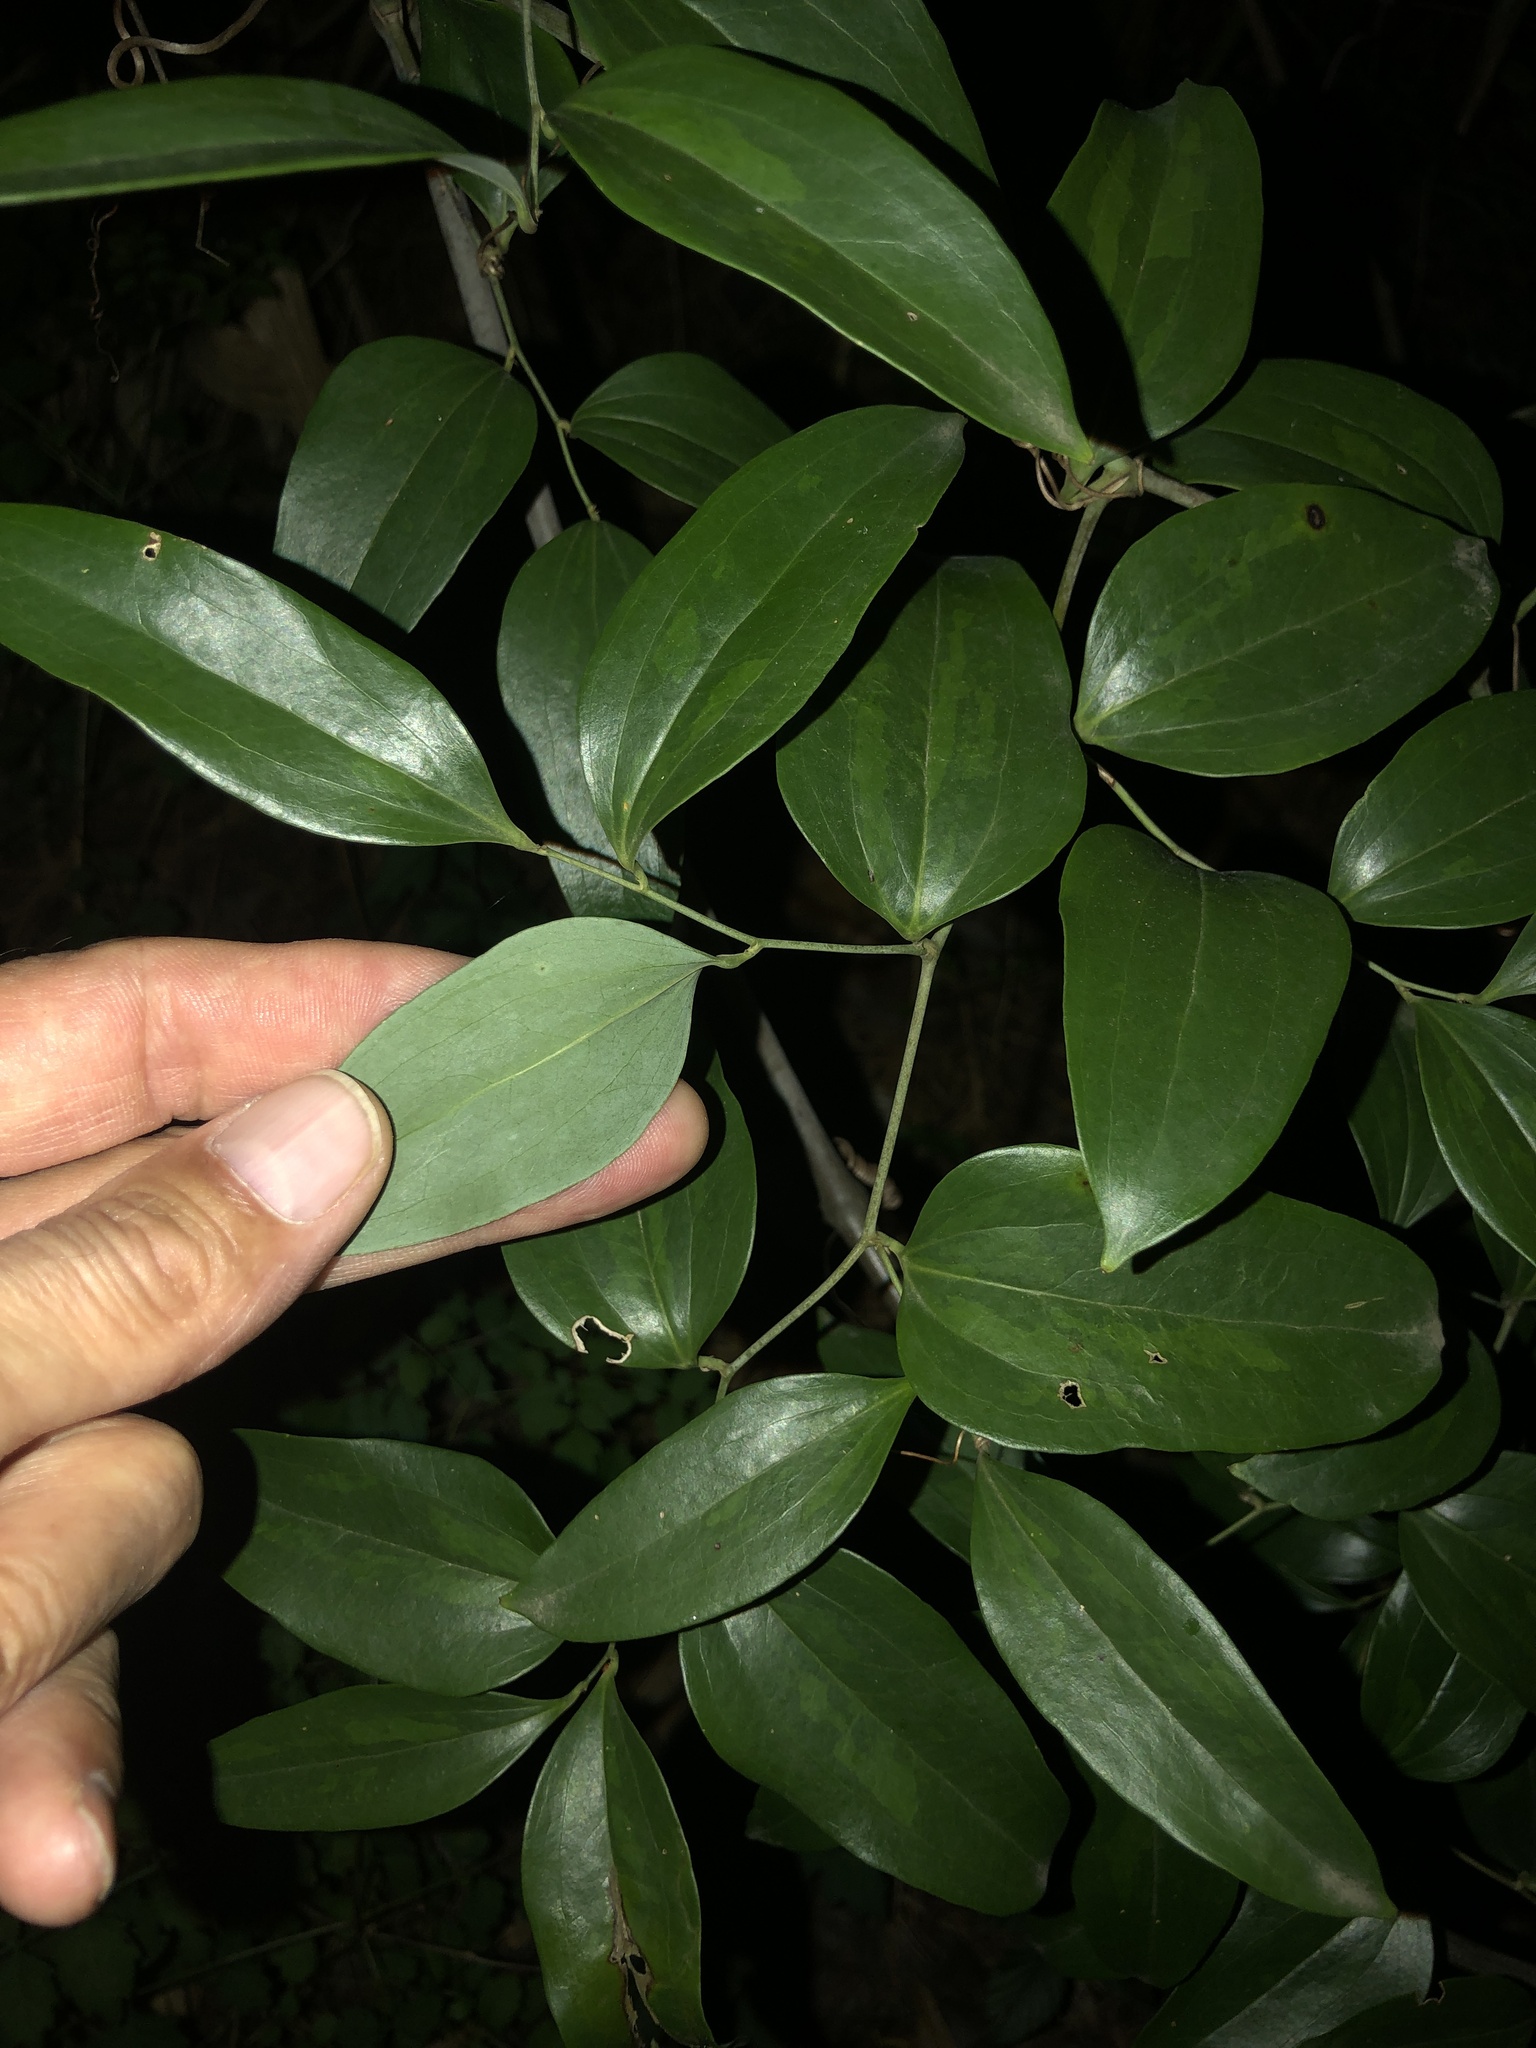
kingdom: Plantae
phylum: Tracheophyta
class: Liliopsida
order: Liliales
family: Smilacaceae
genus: Smilax
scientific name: Smilax maritima
